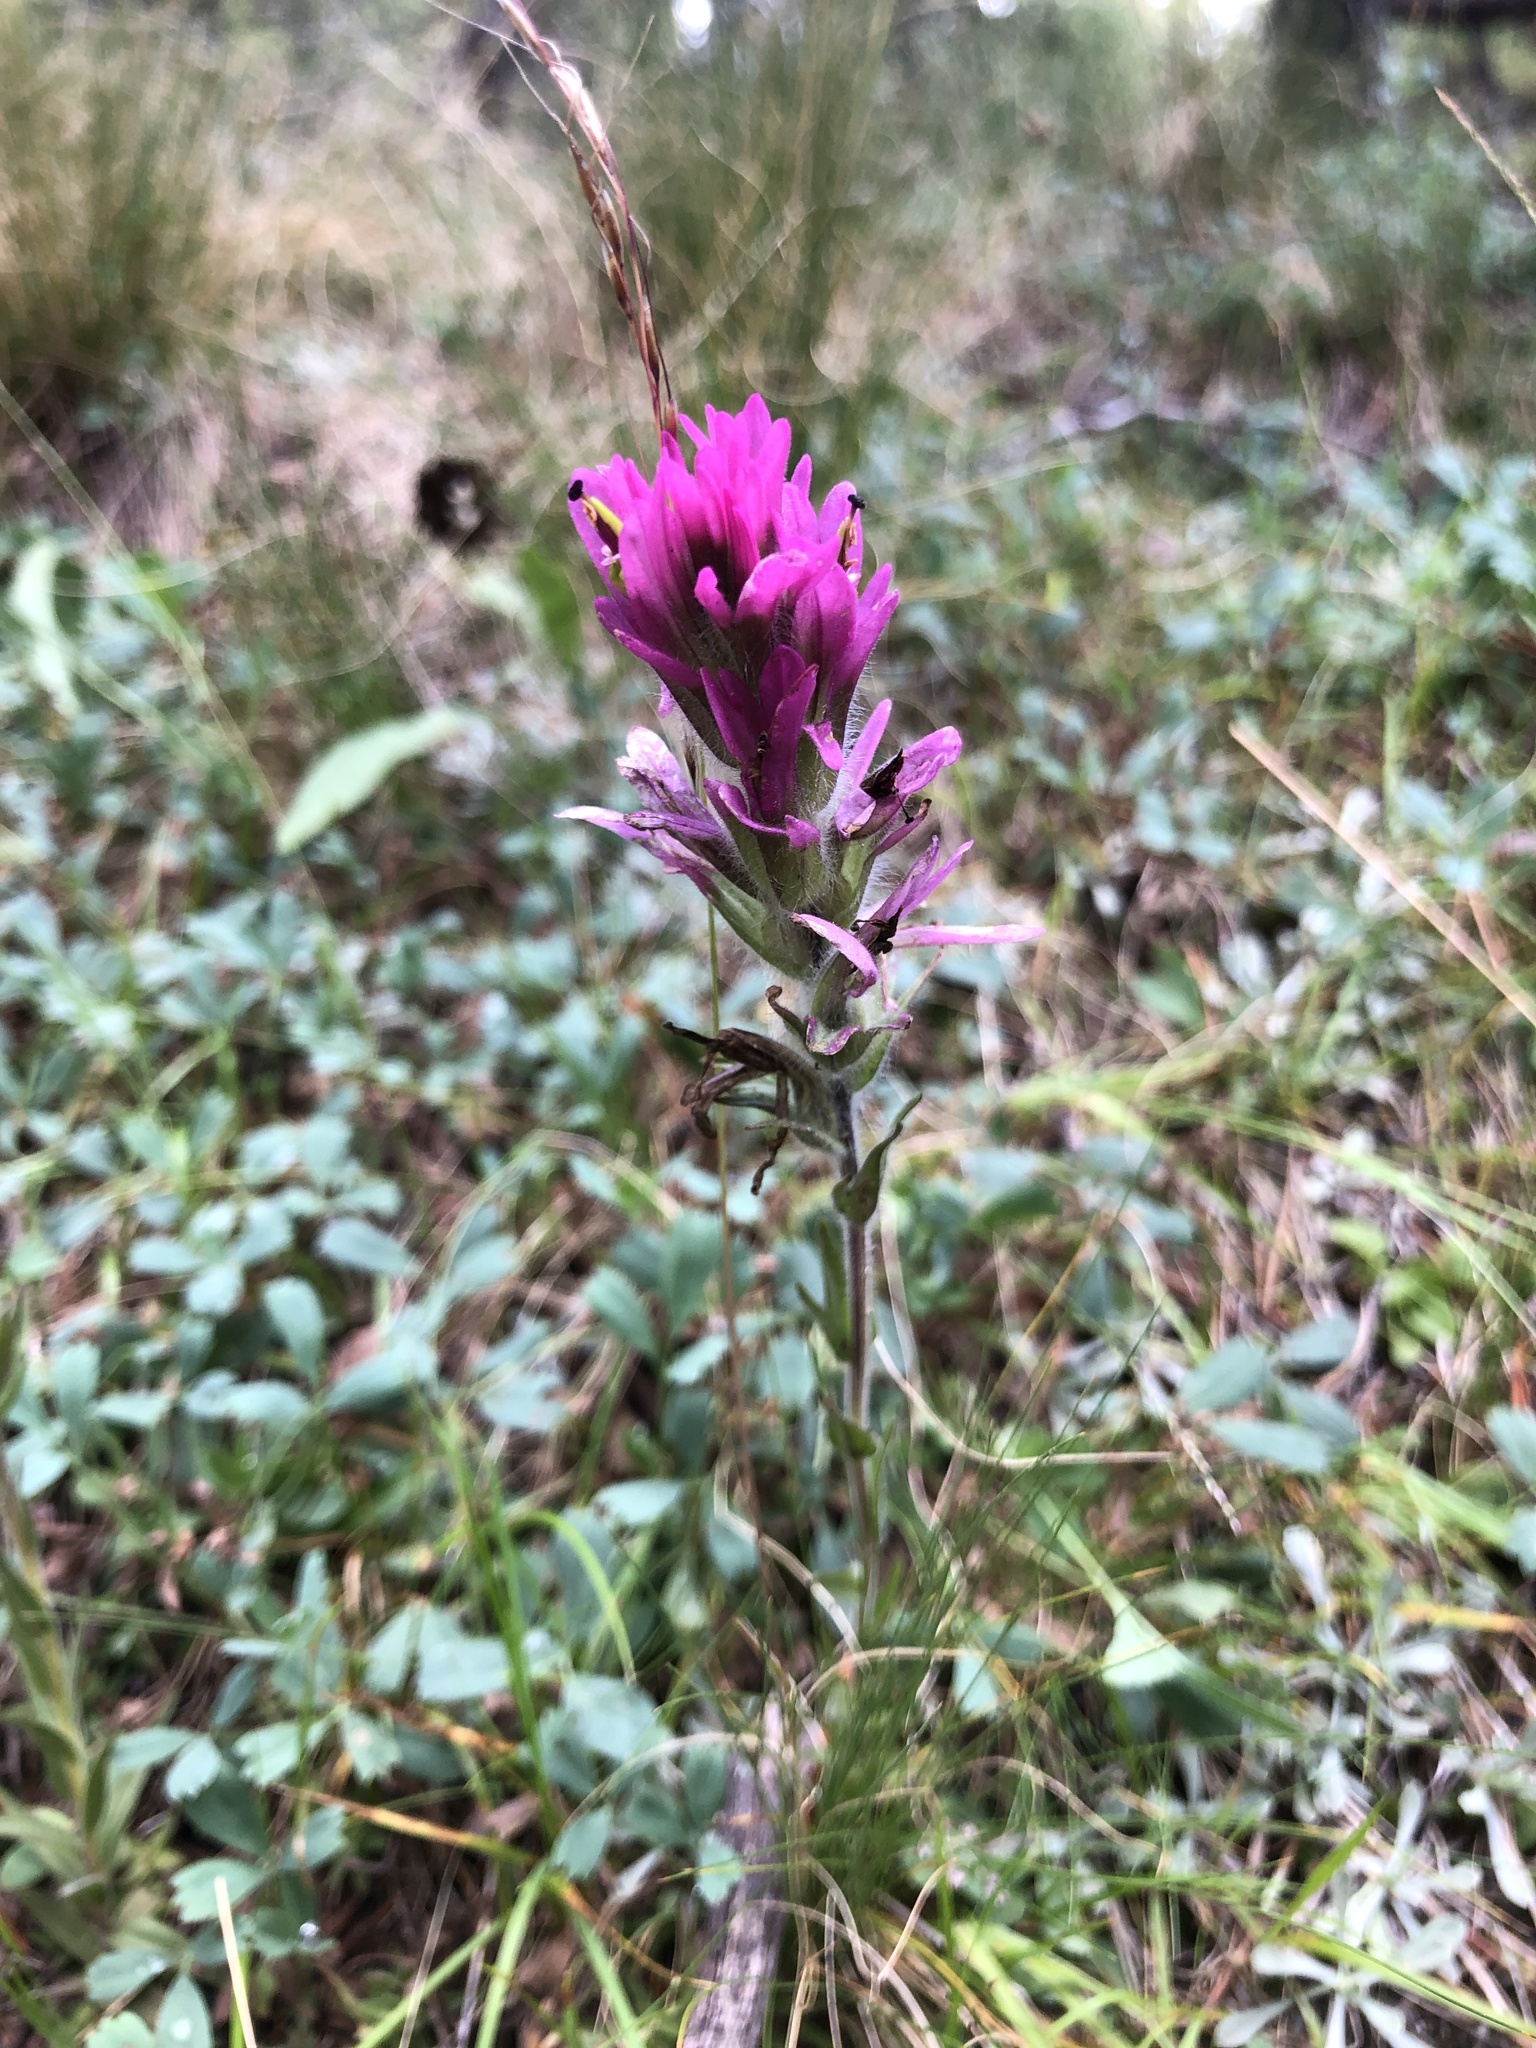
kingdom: Plantae
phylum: Tracheophyta
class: Magnoliopsida
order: Lamiales
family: Orobanchaceae
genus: Castilleja
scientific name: Castilleja lemmonii
